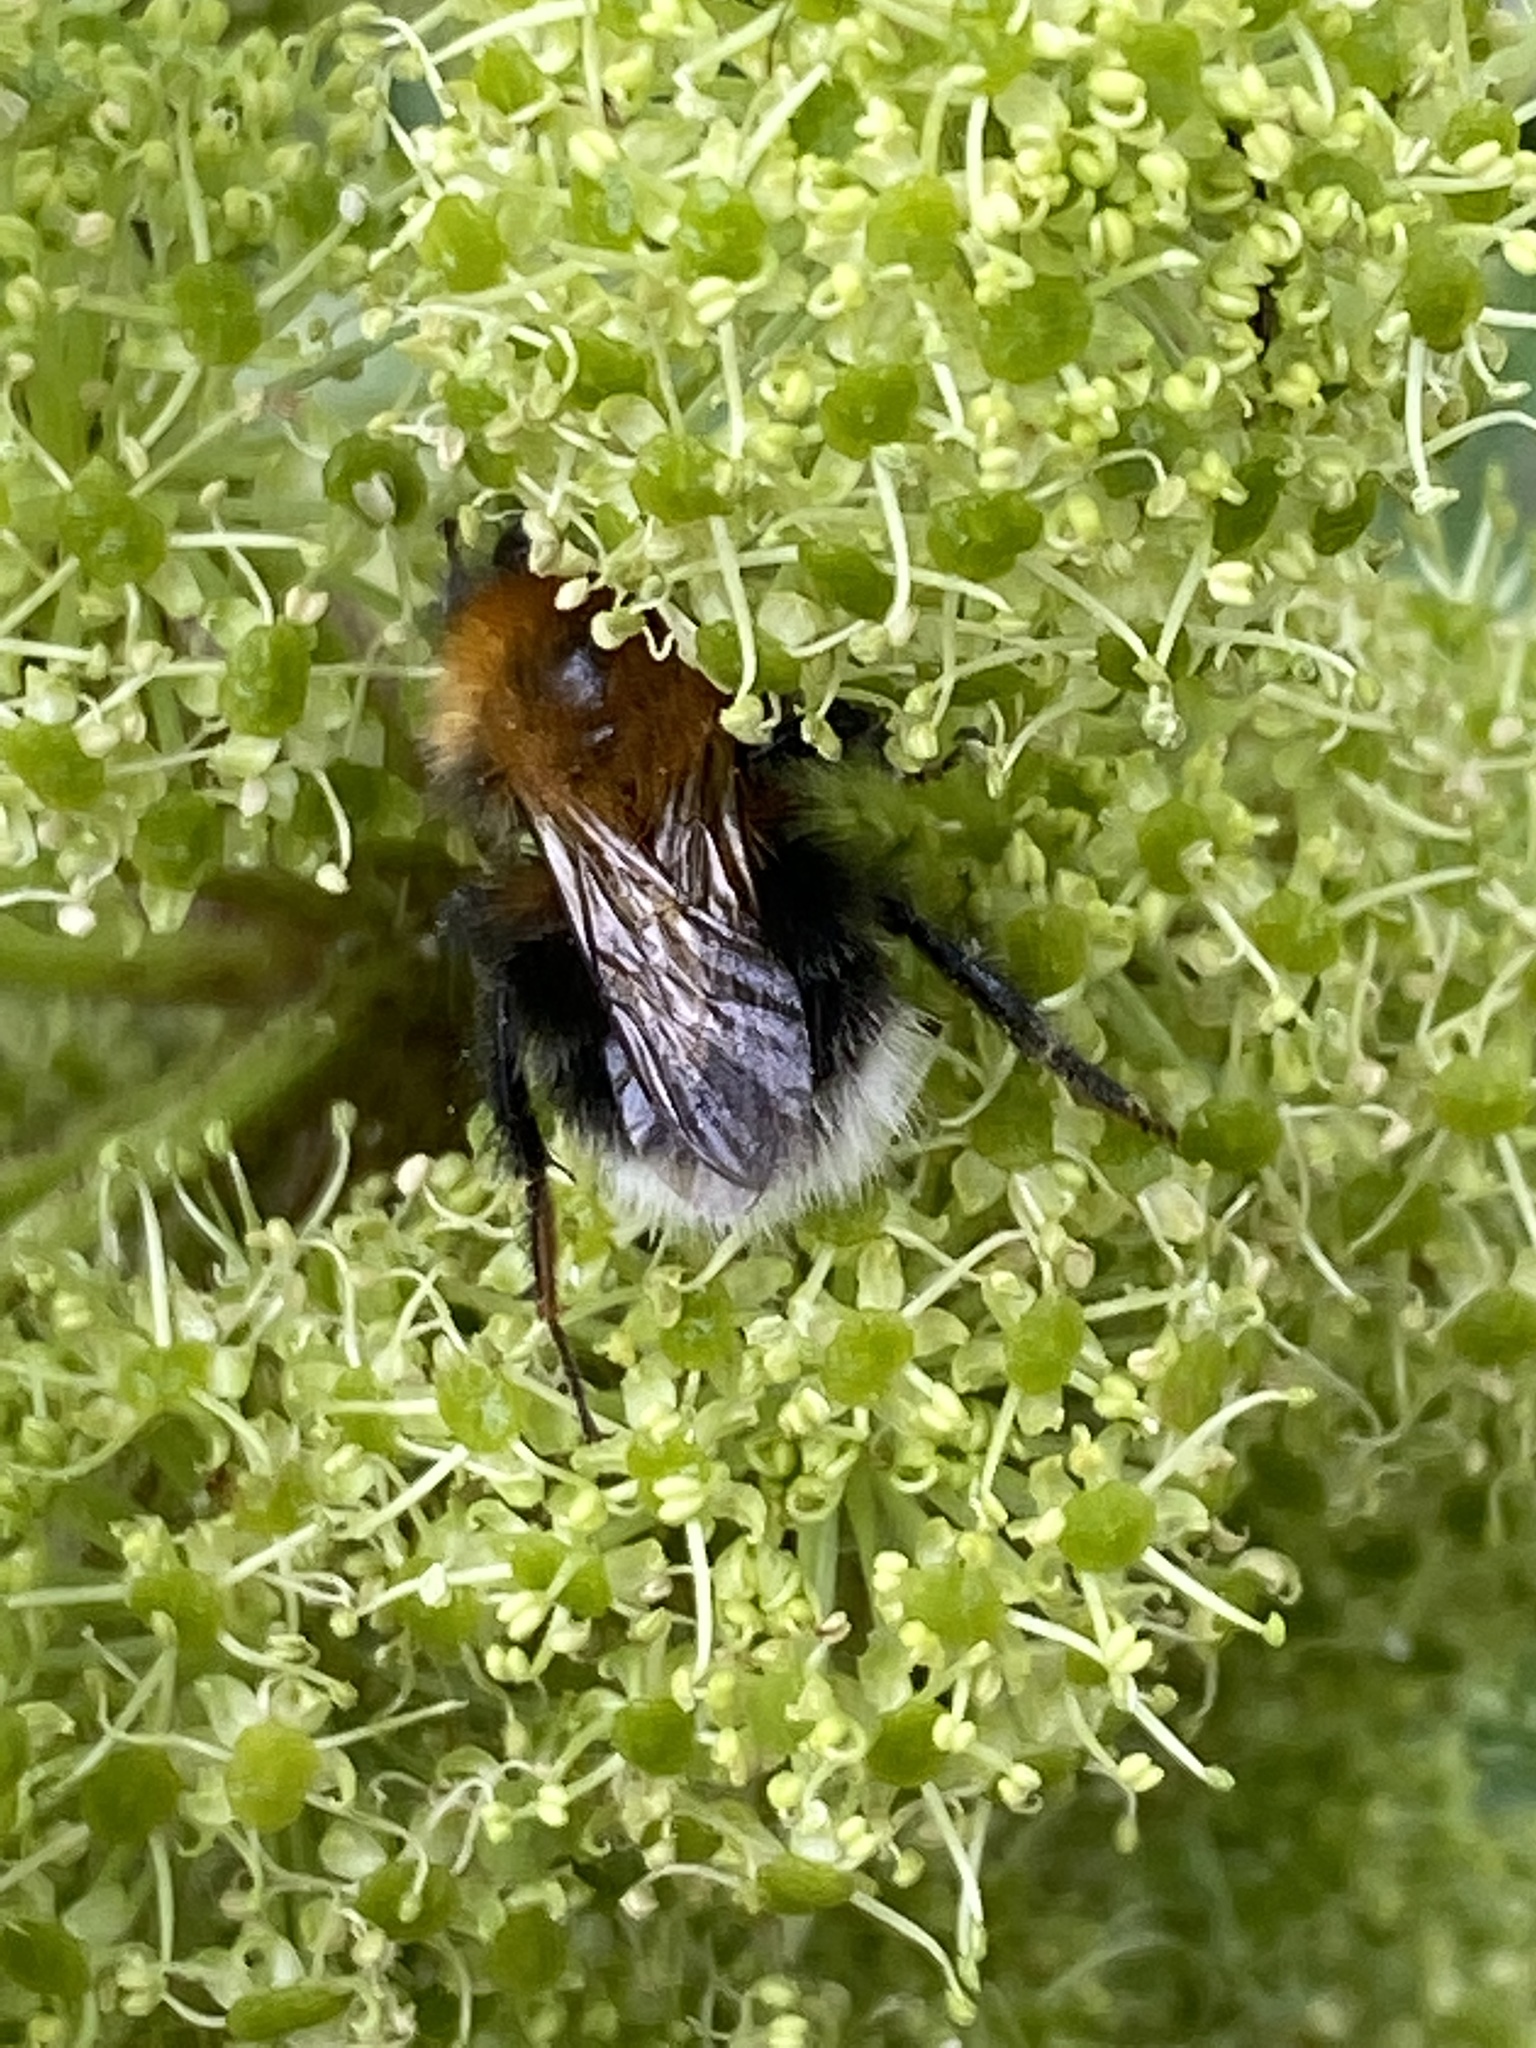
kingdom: Animalia
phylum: Arthropoda
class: Insecta
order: Hymenoptera
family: Apidae
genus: Bombus
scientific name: Bombus hypnorum
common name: New garden bumblebee
